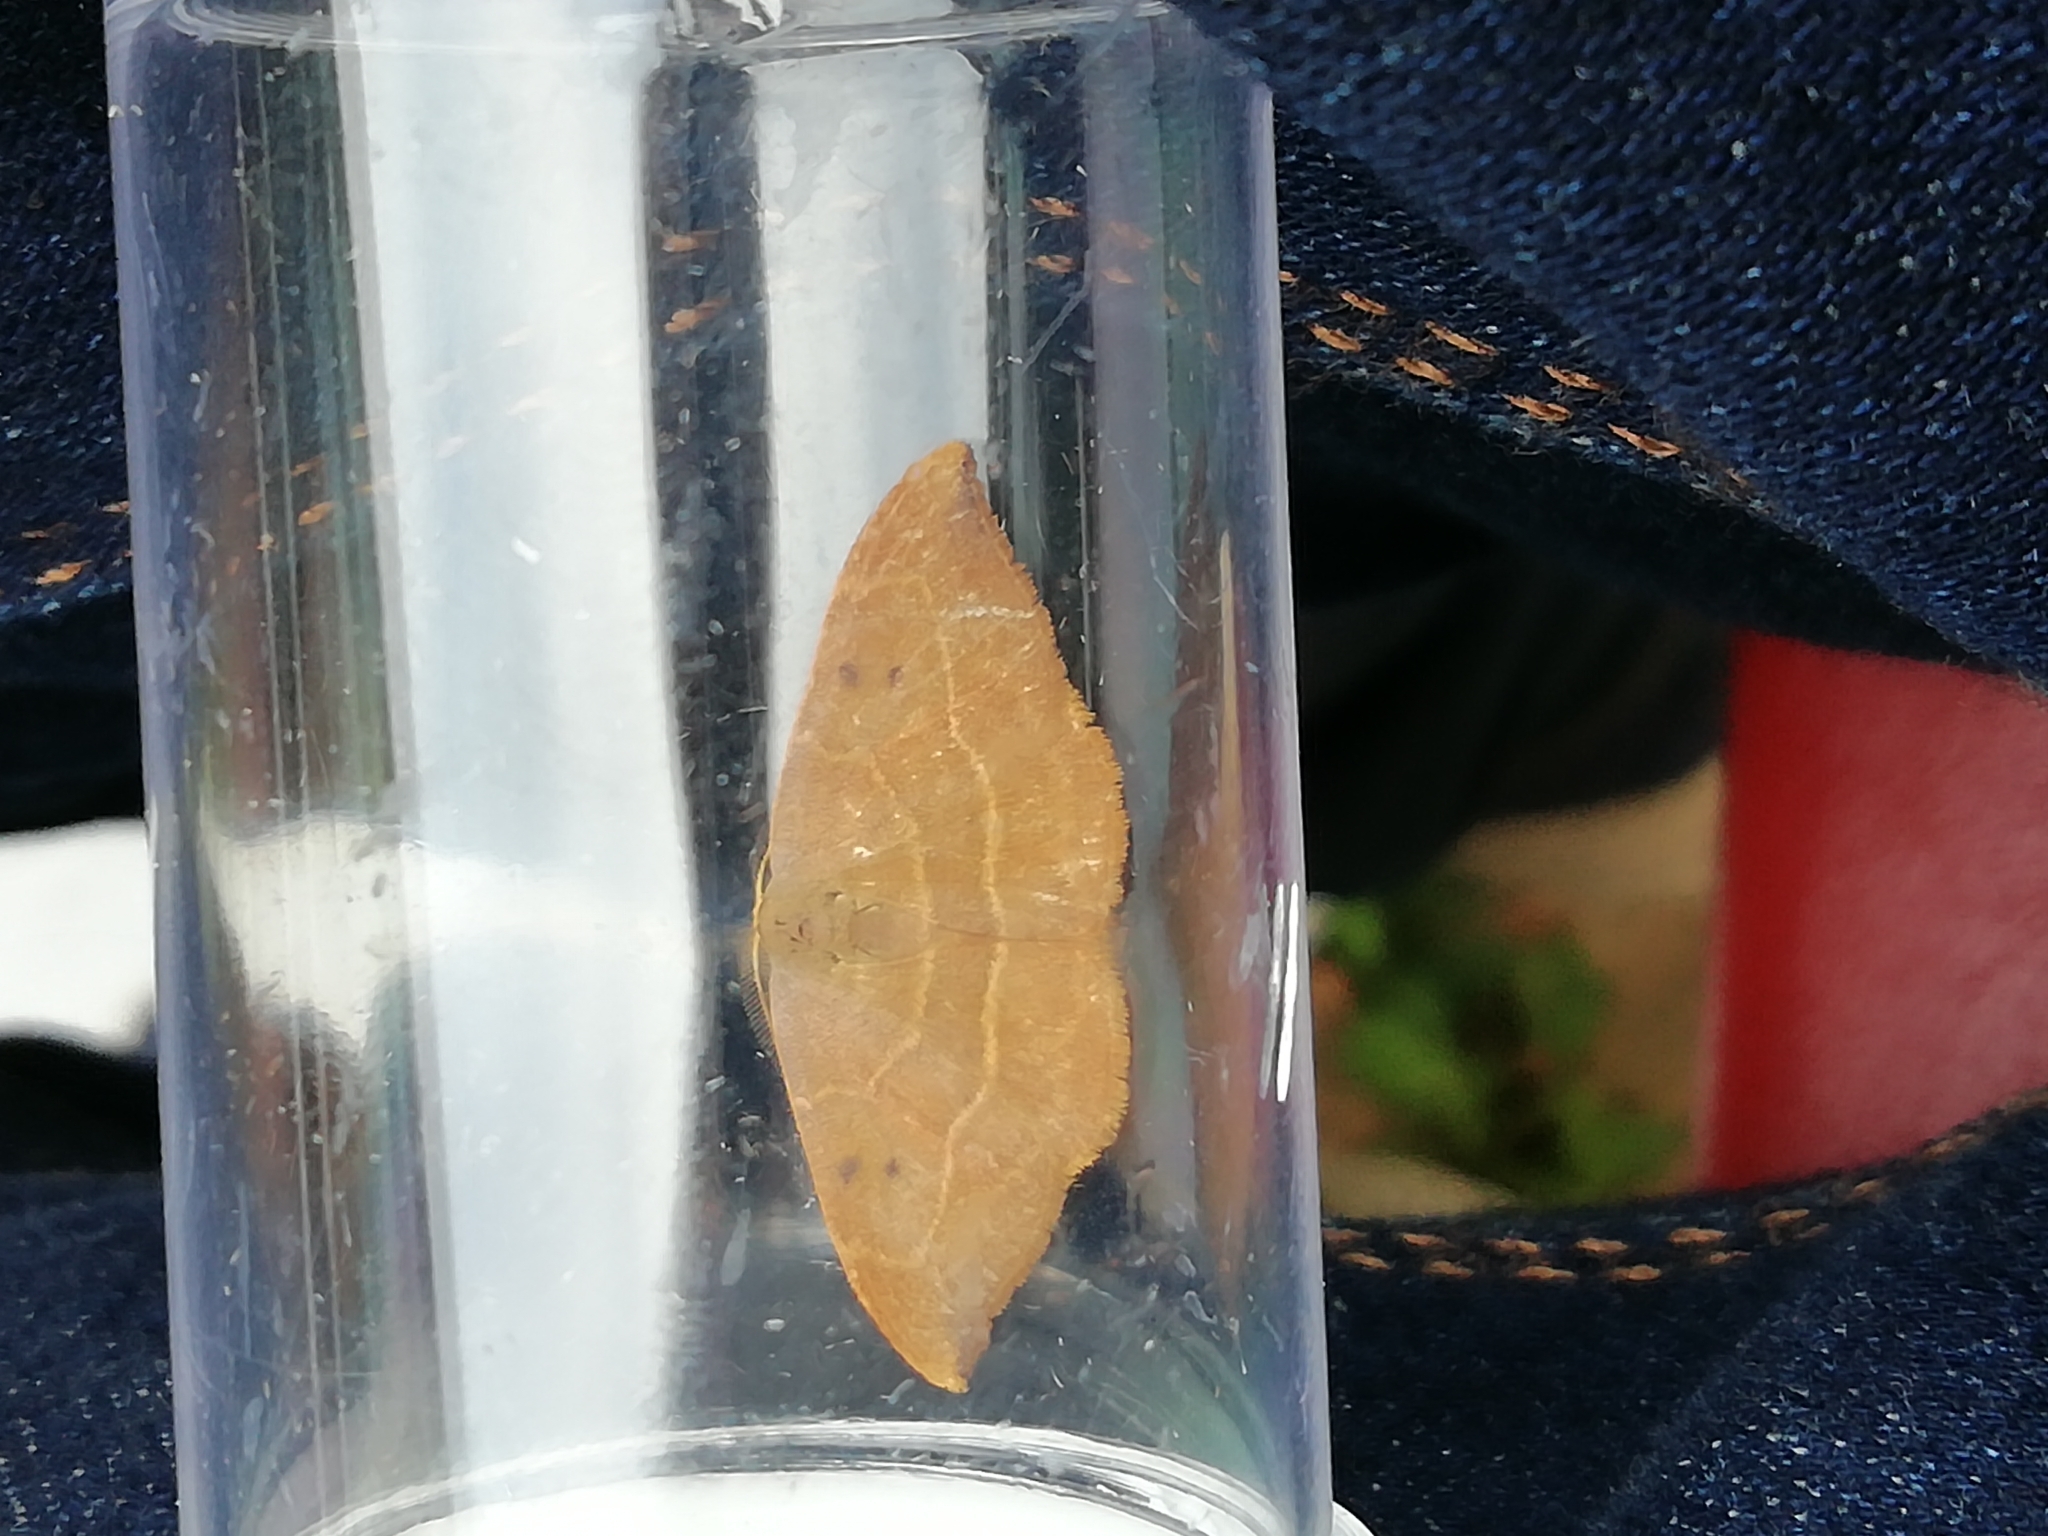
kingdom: Animalia
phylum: Arthropoda
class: Insecta
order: Lepidoptera
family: Drepanidae
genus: Watsonalla
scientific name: Watsonalla binaria
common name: Oak hook-tip
